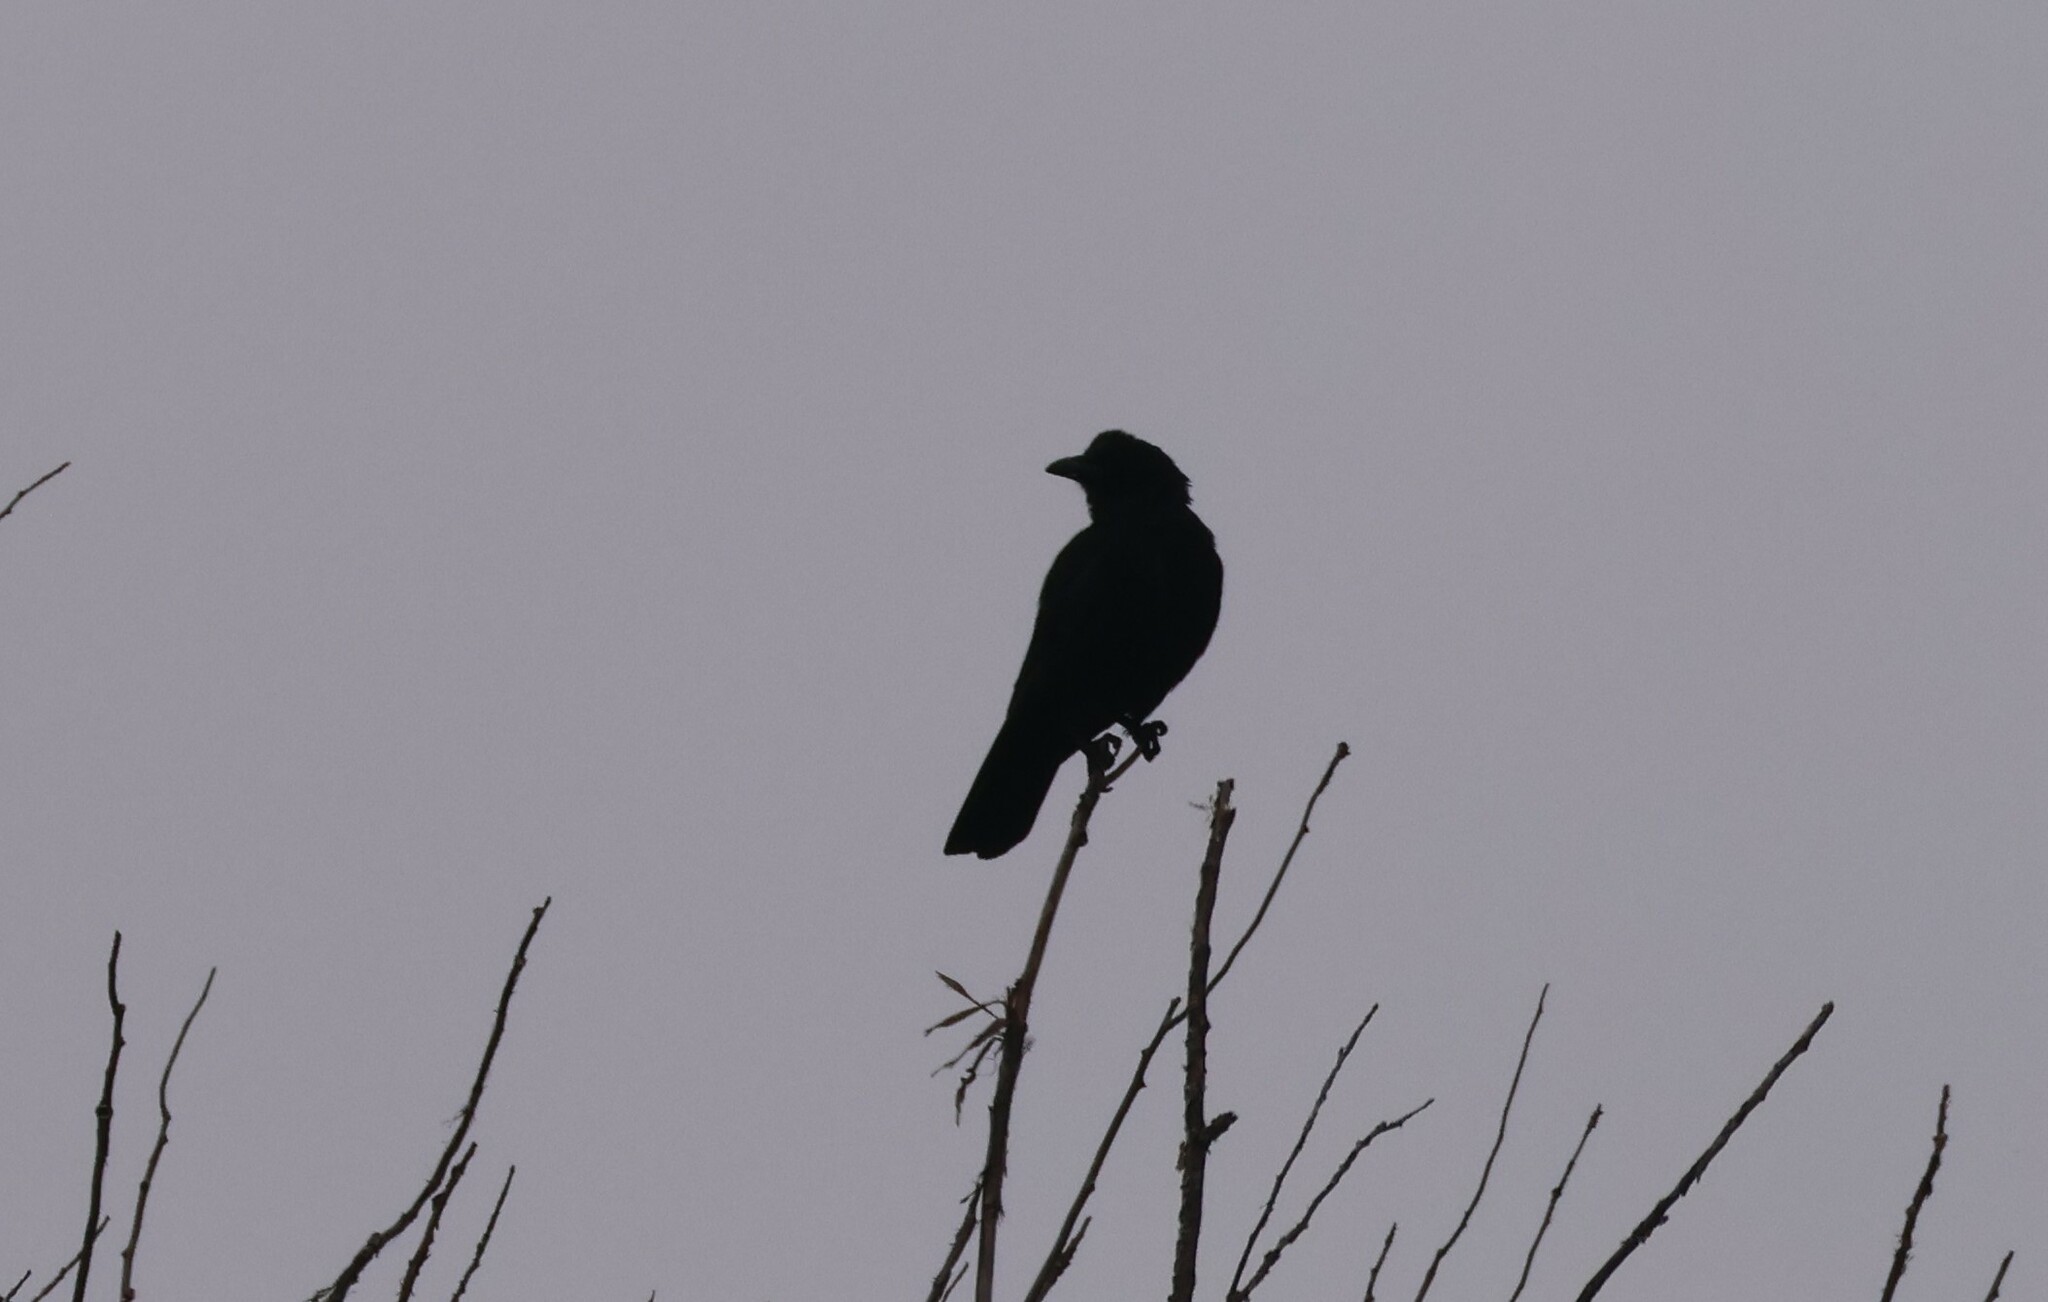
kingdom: Animalia
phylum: Chordata
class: Aves
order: Passeriformes
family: Corvidae
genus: Corvus
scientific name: Corvus brachyrhynchos
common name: American crow
